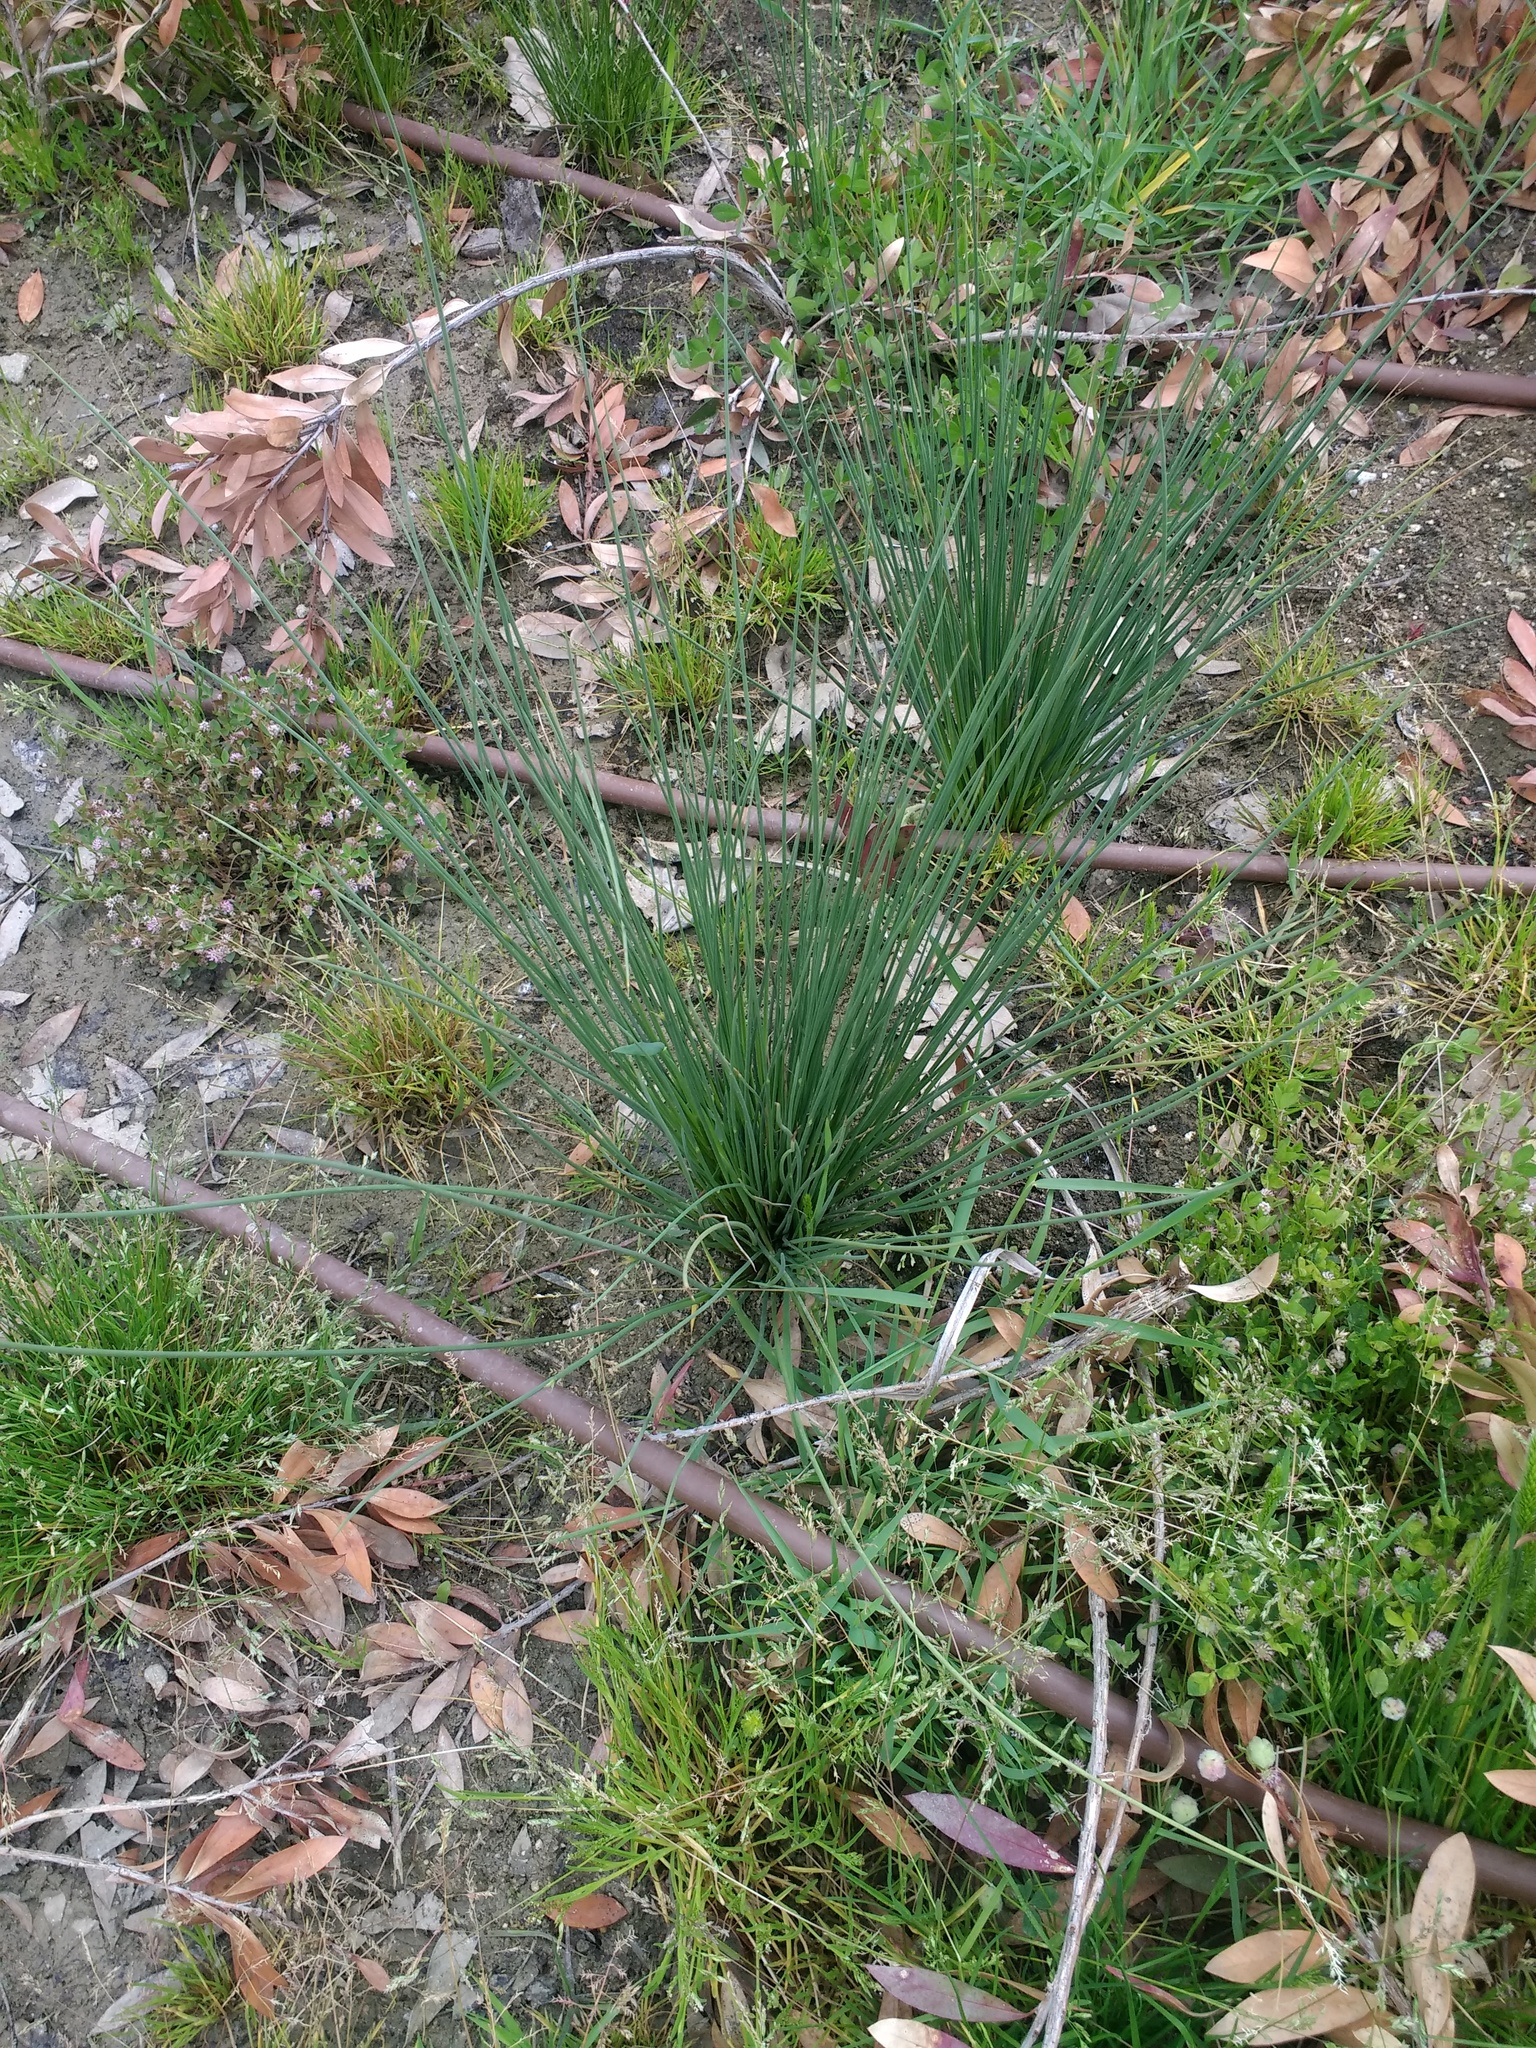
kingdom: Plantae
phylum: Tracheophyta
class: Liliopsida
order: Poales
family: Juncaceae
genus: Juncus
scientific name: Juncus inflexus
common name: Hard rush
